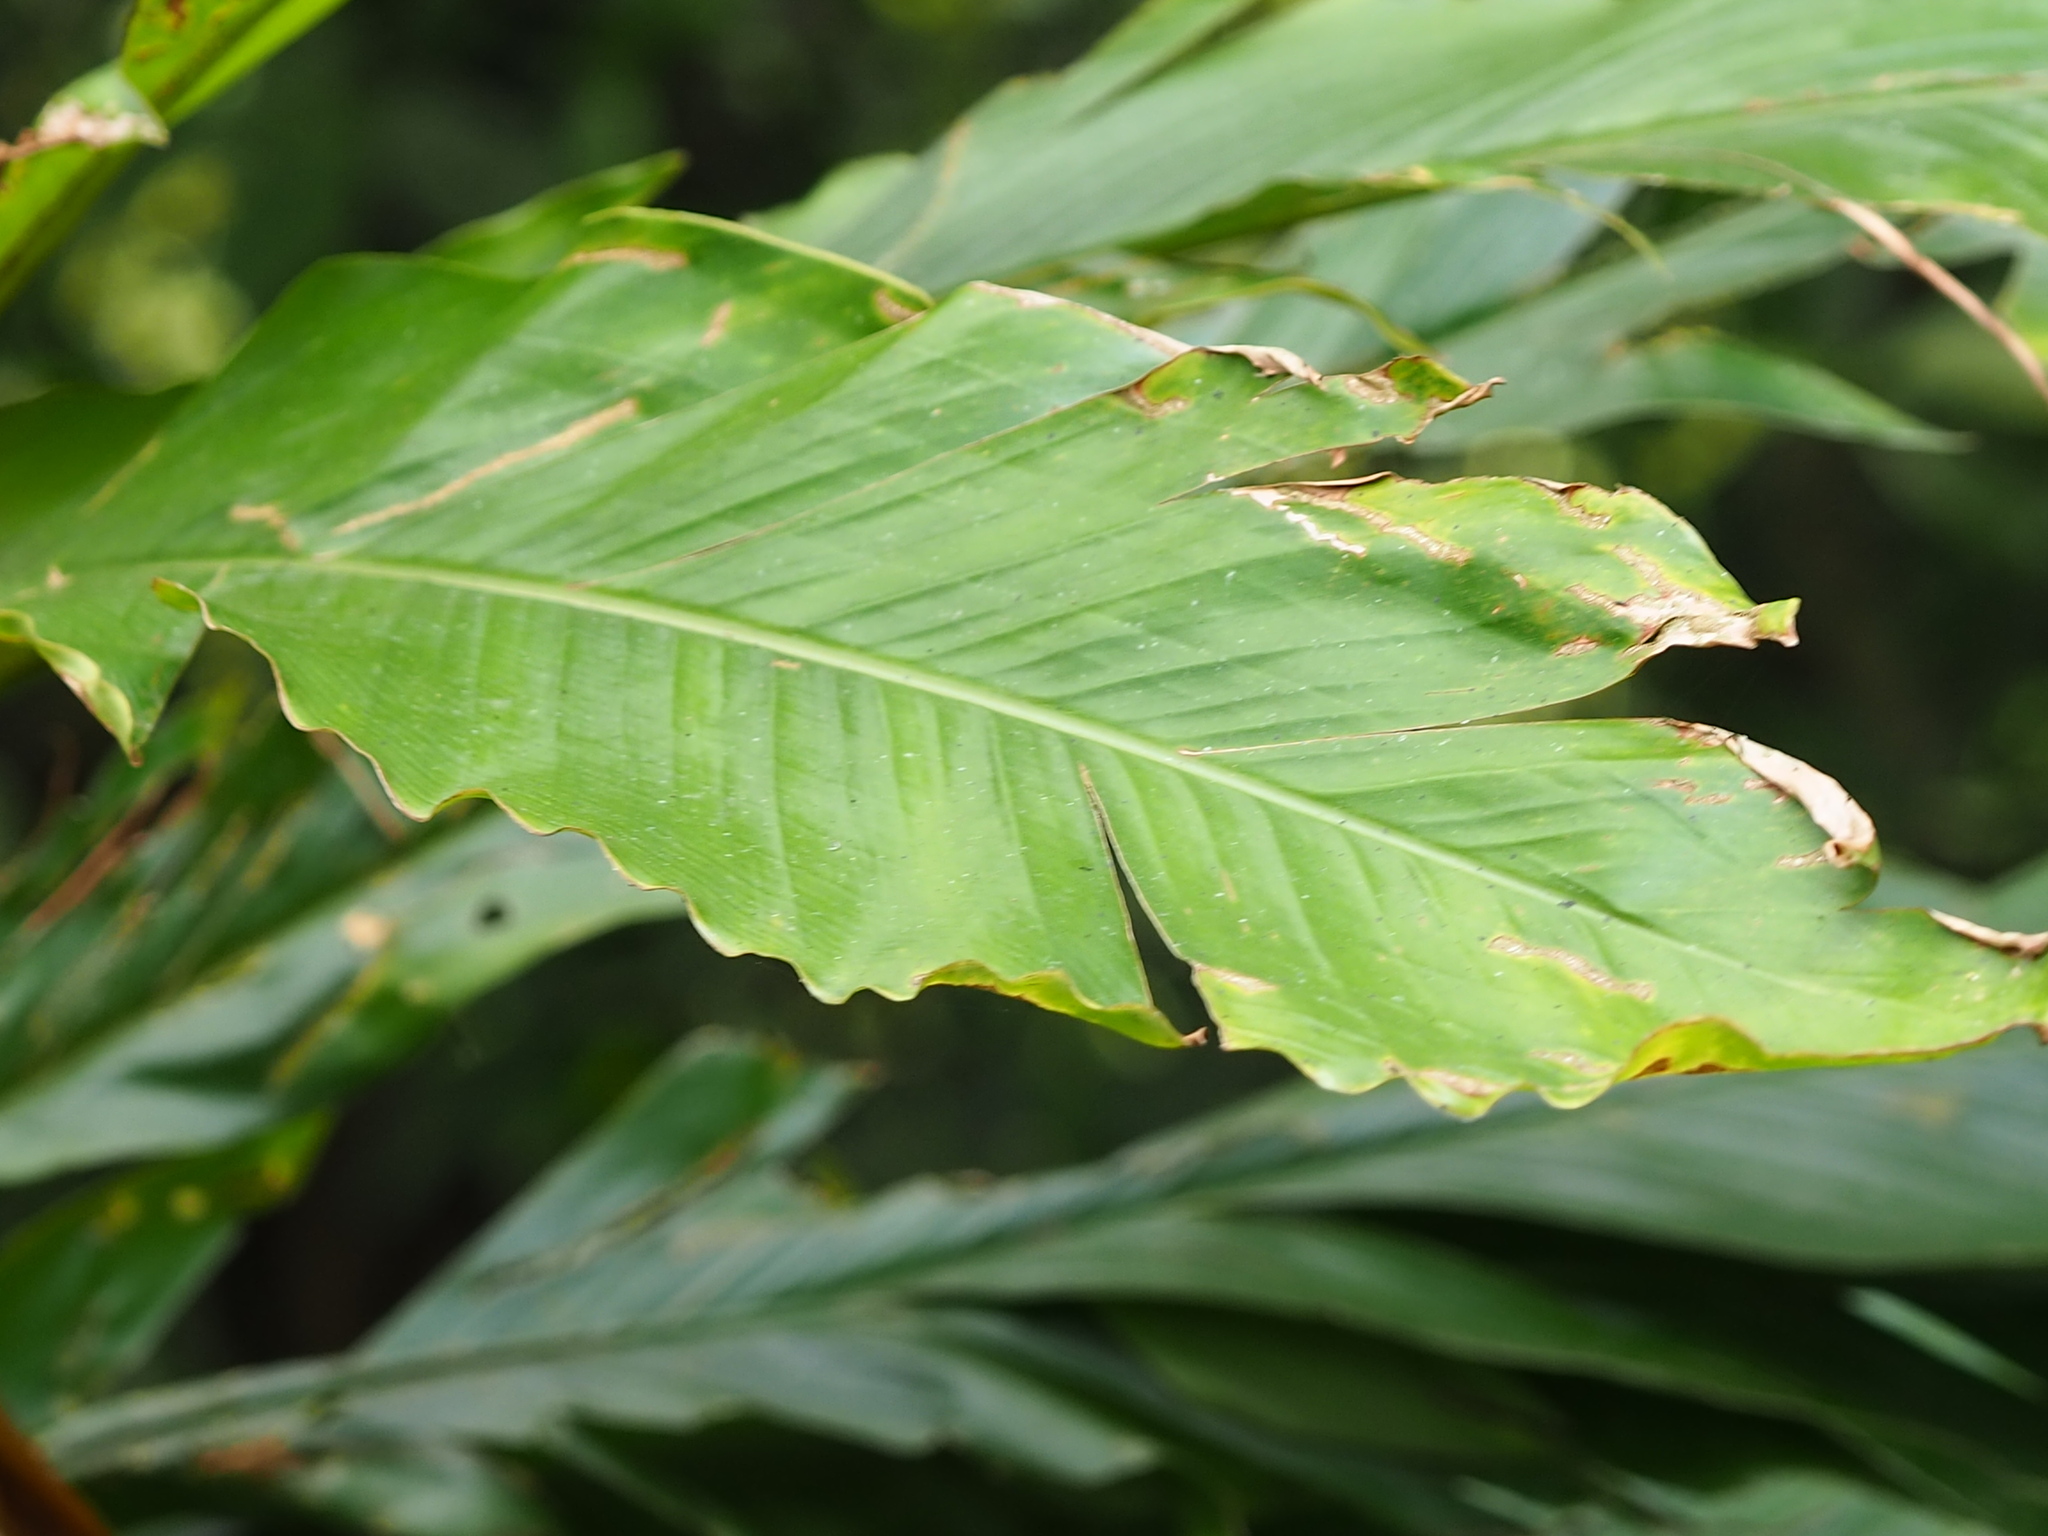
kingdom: Plantae
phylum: Tracheophyta
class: Liliopsida
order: Zingiberales
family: Zingiberaceae
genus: Alpinia
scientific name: Alpinia uraiensis
